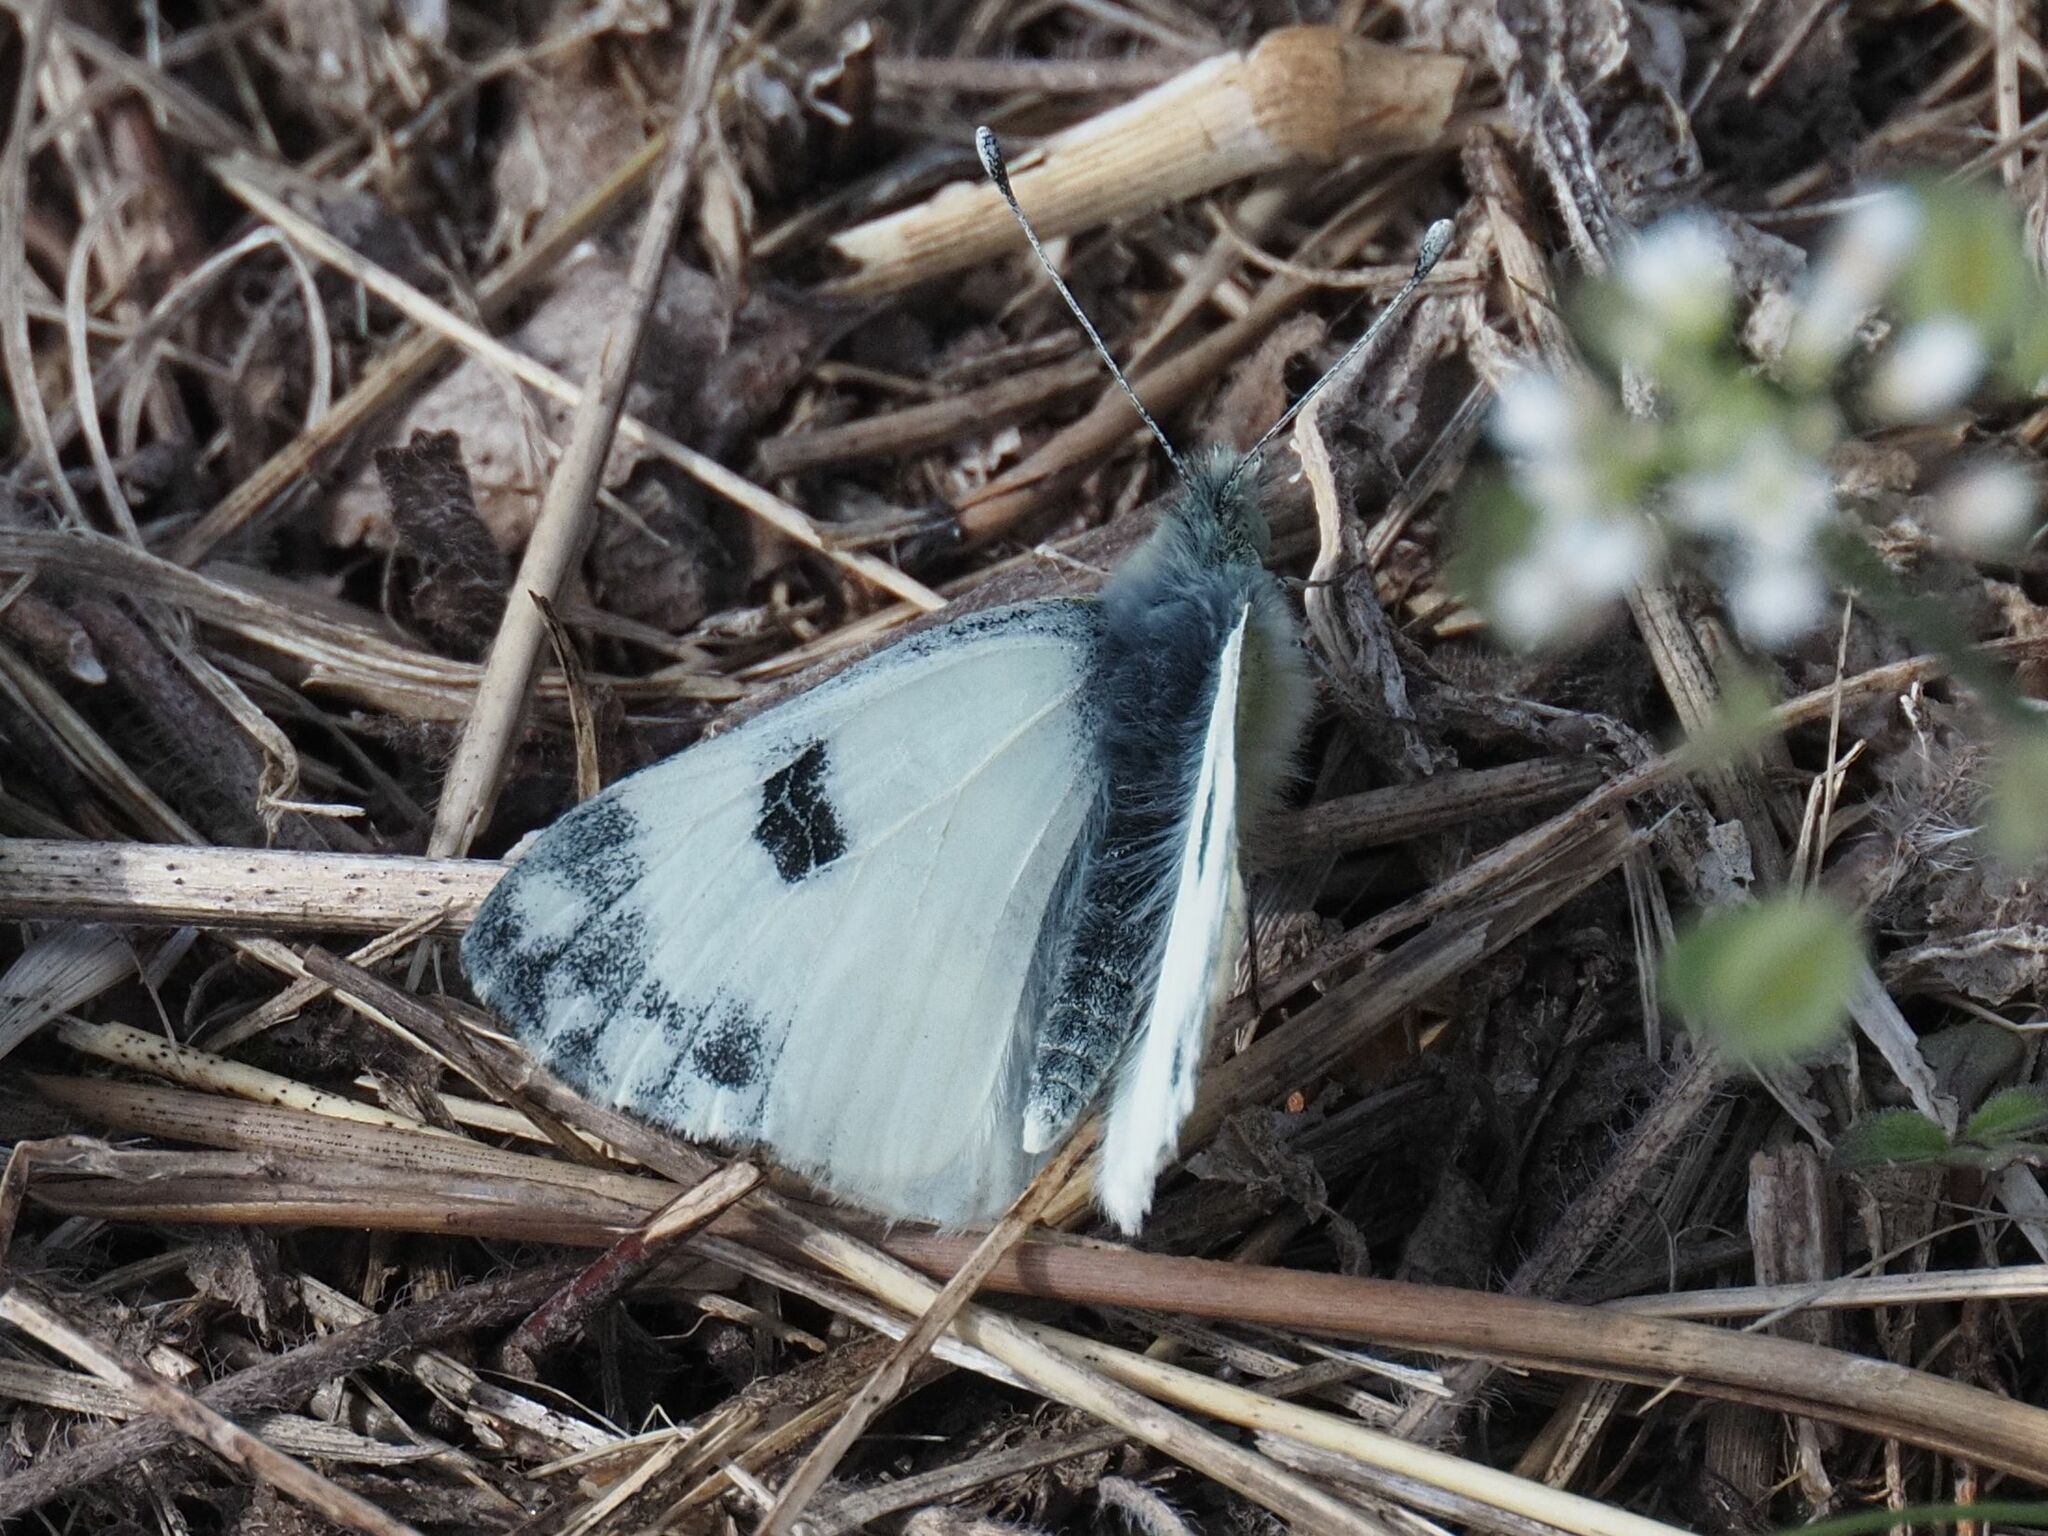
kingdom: Animalia
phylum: Arthropoda
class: Insecta
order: Lepidoptera
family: Pieridae
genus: Pontia
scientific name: Pontia edusa
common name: Eastern bath white
